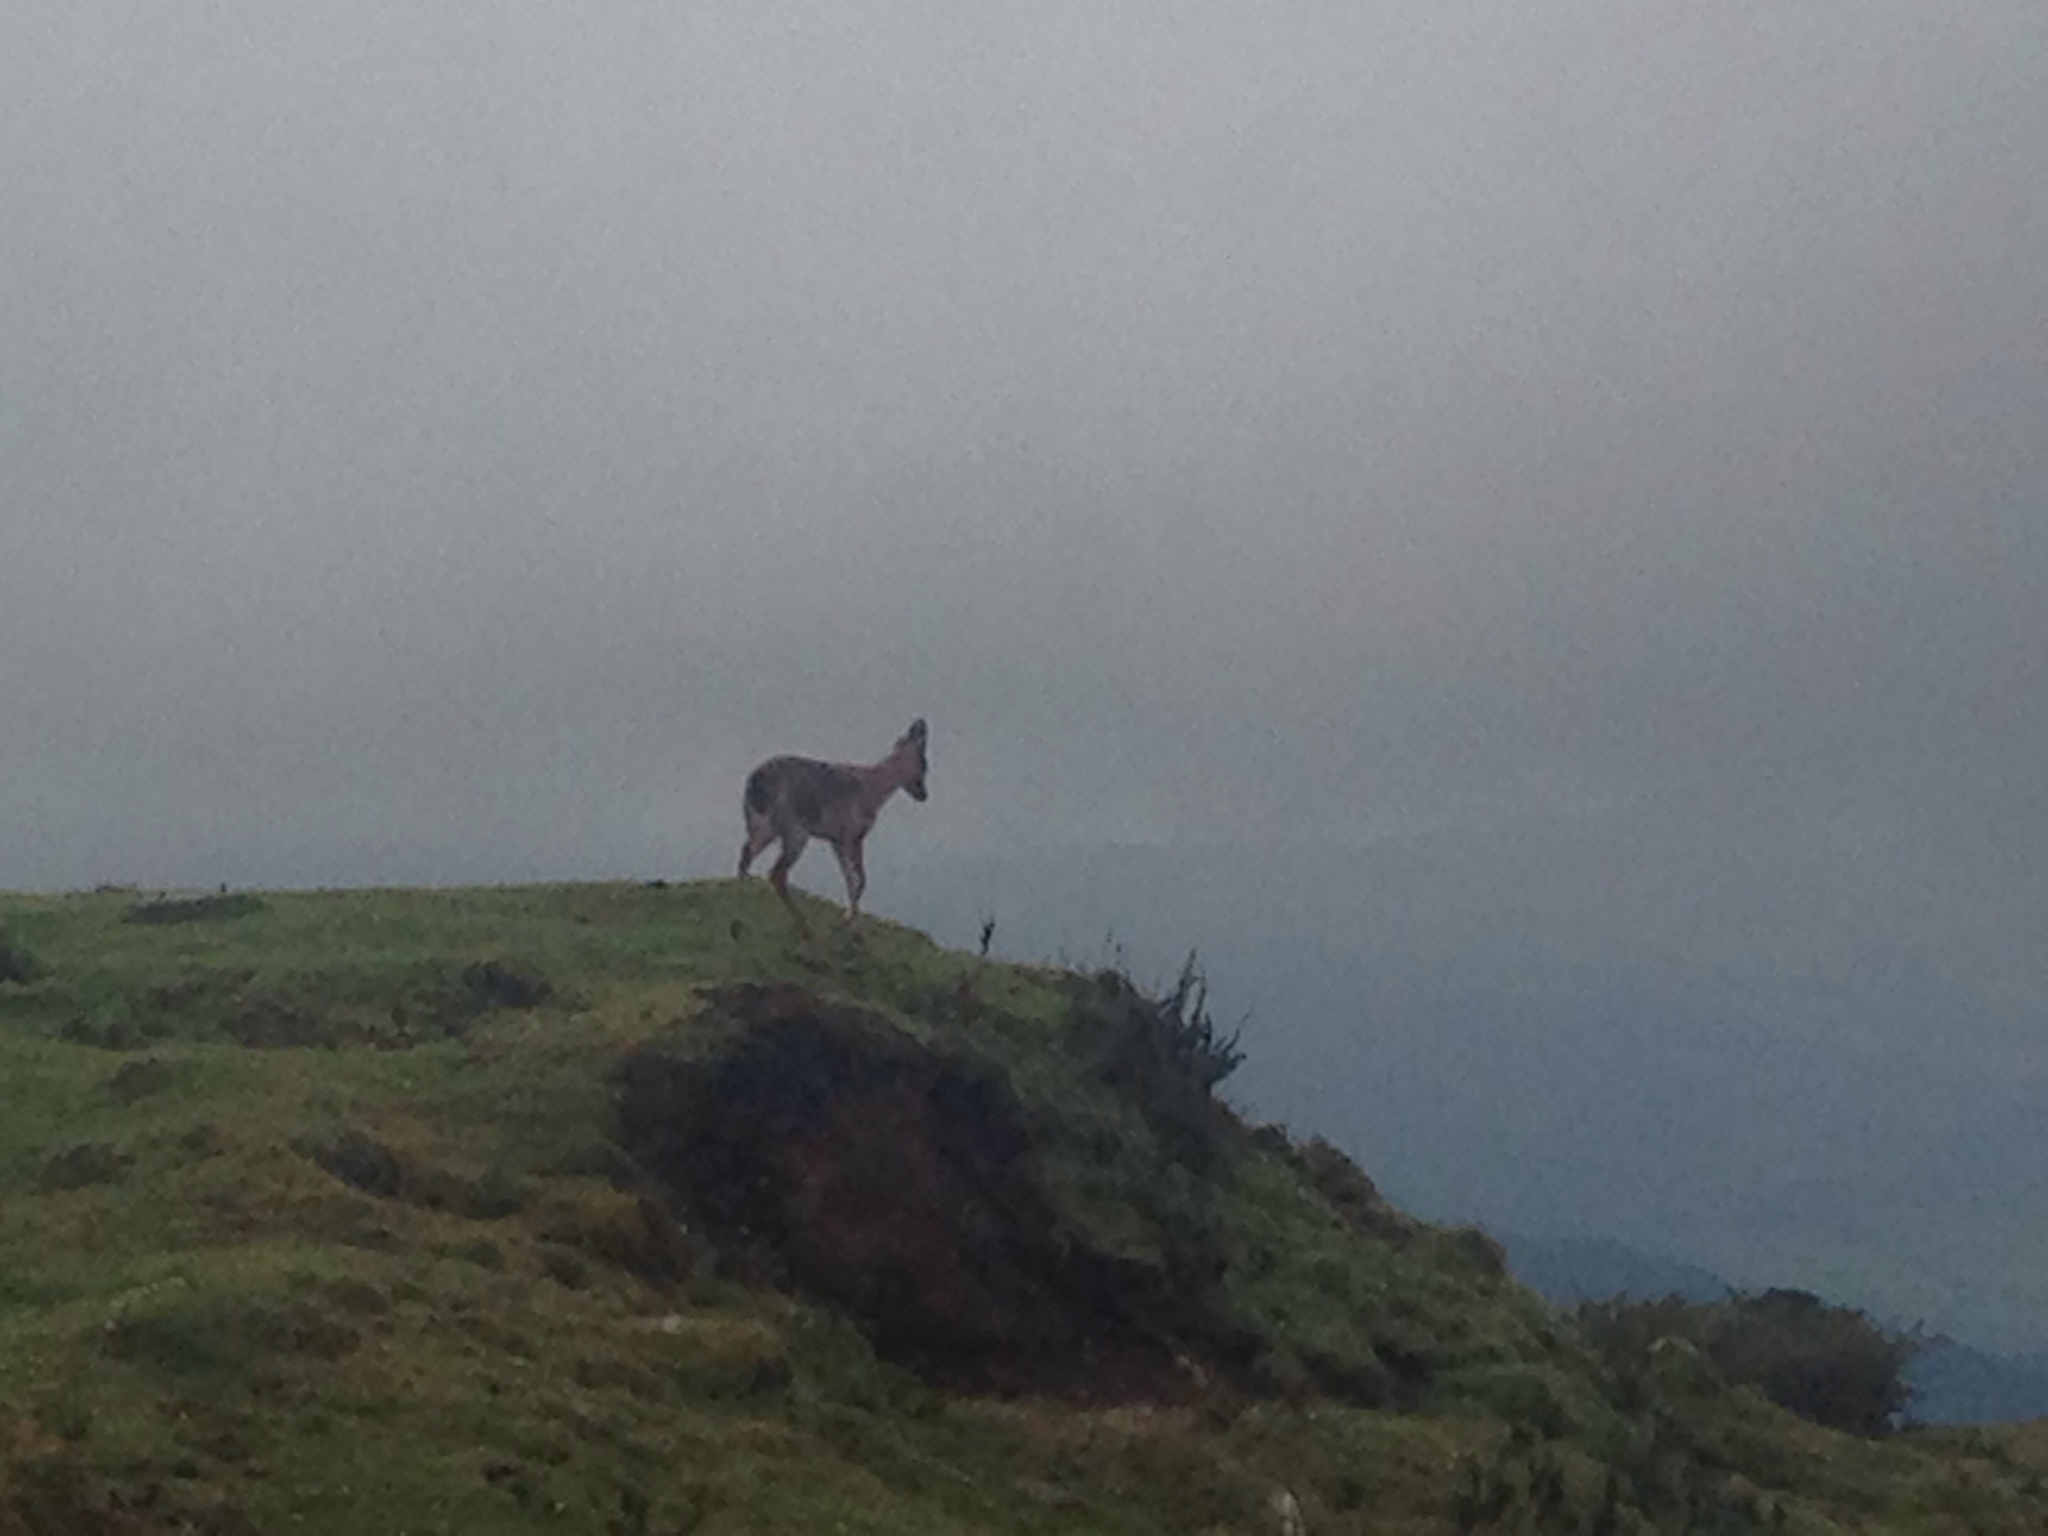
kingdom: Animalia
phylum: Chordata
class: Mammalia
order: Artiodactyla
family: Cervidae
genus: Odocoileus
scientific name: Odocoileus virginianus
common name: White-tailed deer
